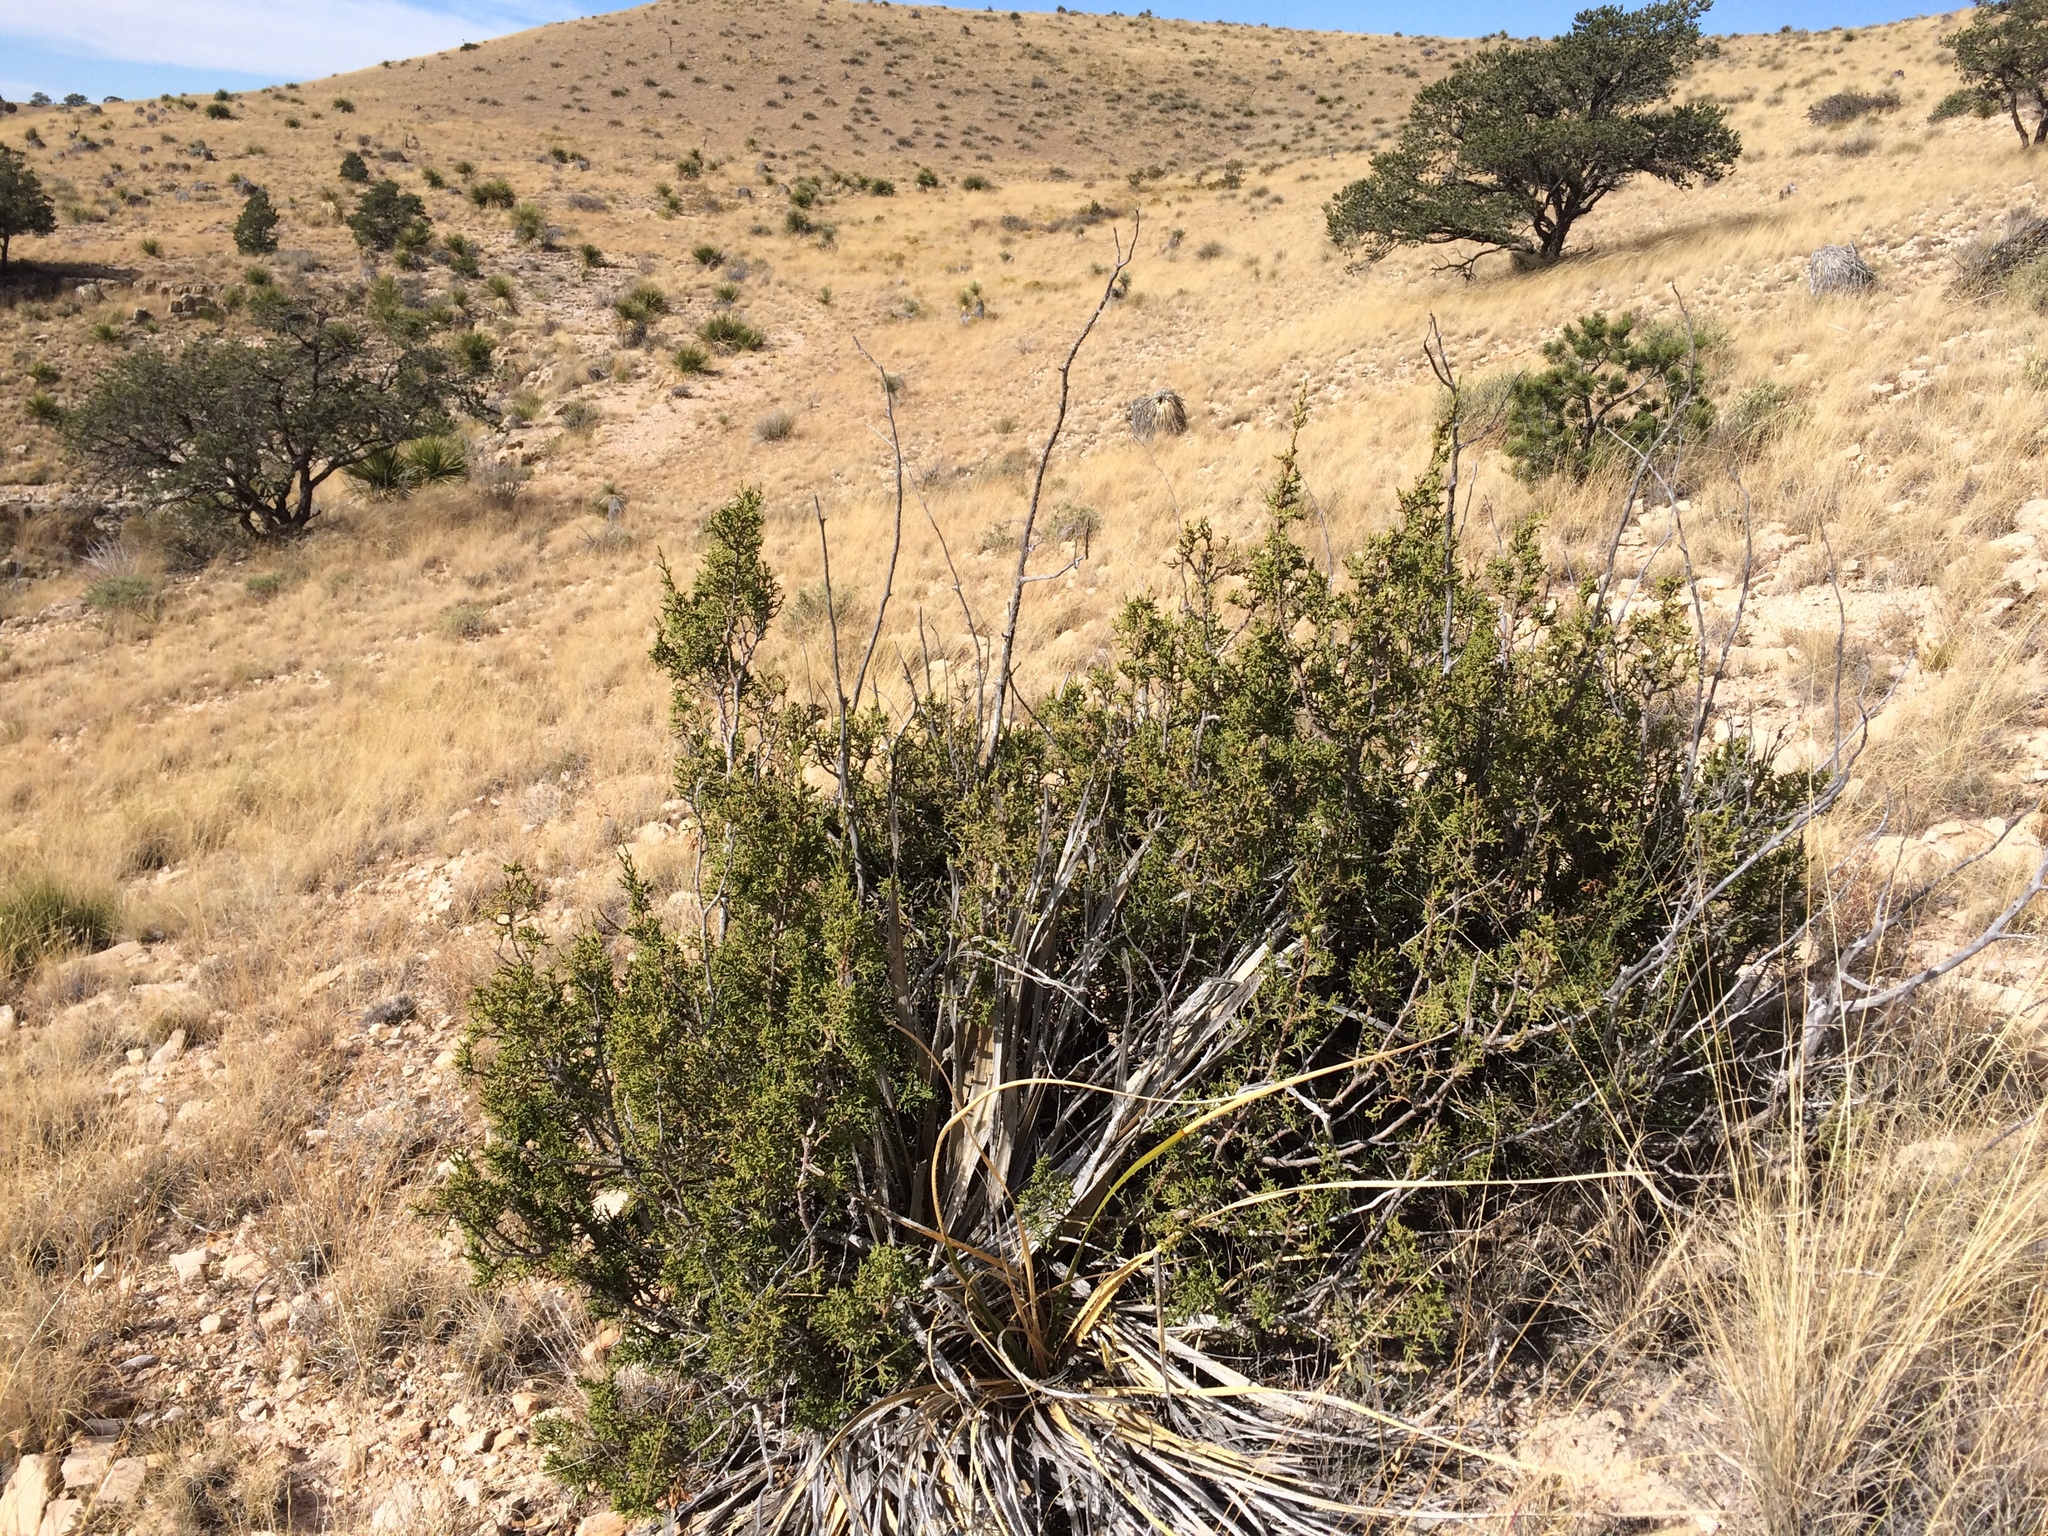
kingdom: Plantae
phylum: Tracheophyta
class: Pinopsida
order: Pinales
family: Cupressaceae
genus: Juniperus
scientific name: Juniperus monosperma
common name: One-seed juniper
